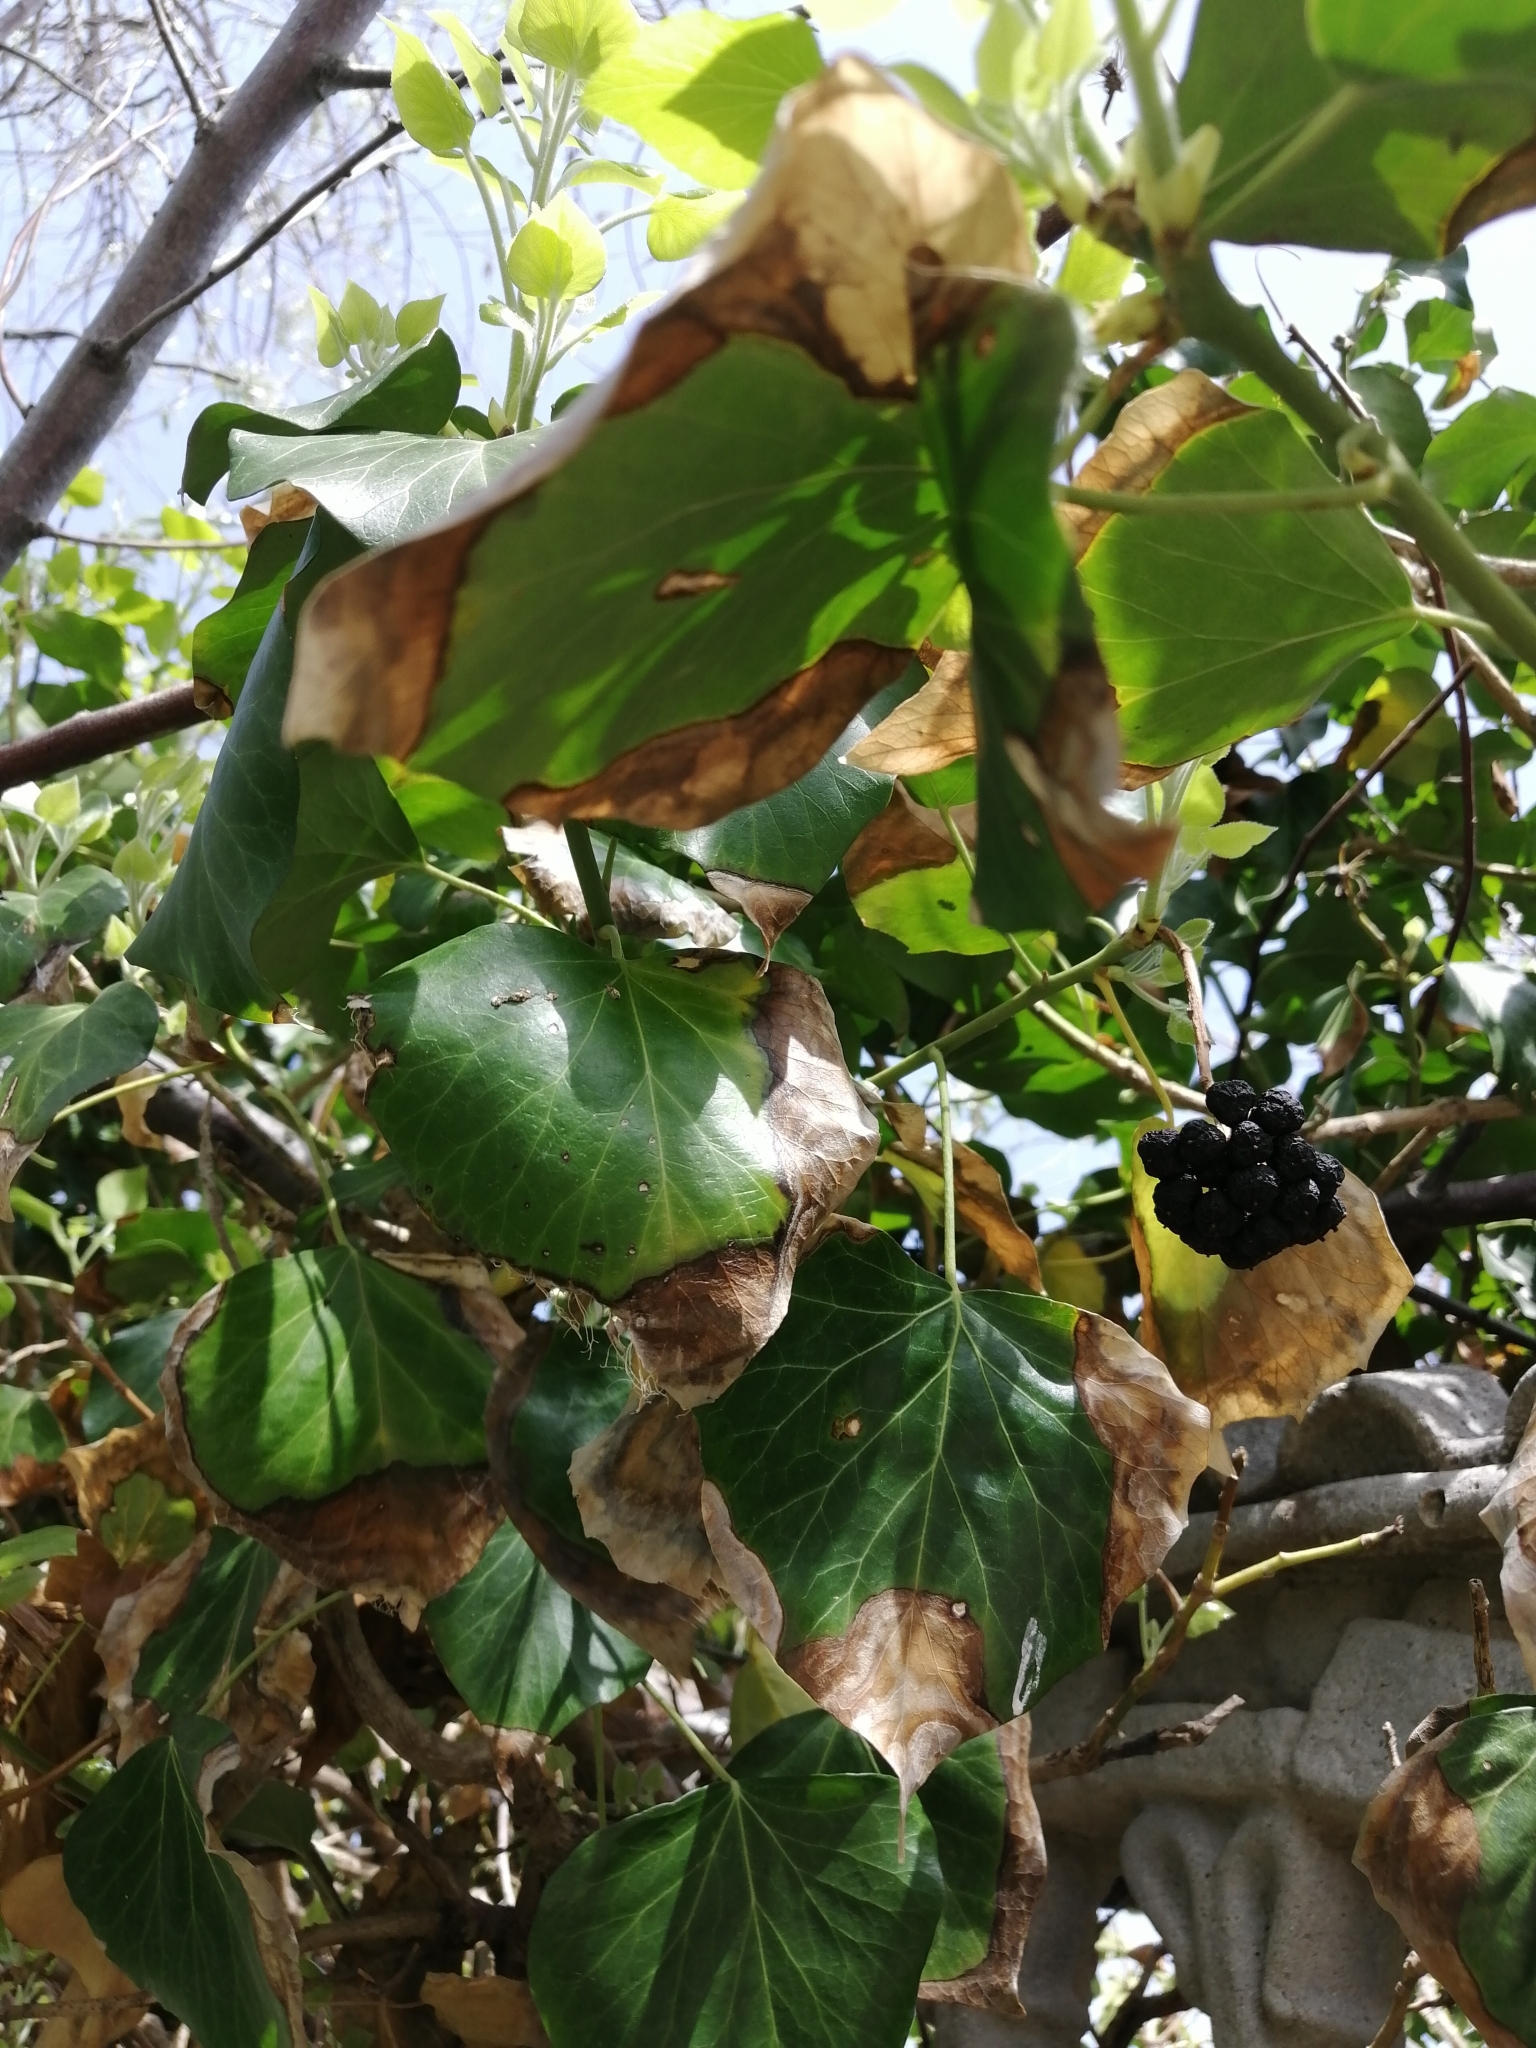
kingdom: Plantae
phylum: Tracheophyta
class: Magnoliopsida
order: Apiales
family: Araliaceae
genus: Hedera
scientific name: Hedera helix
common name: Ivy
